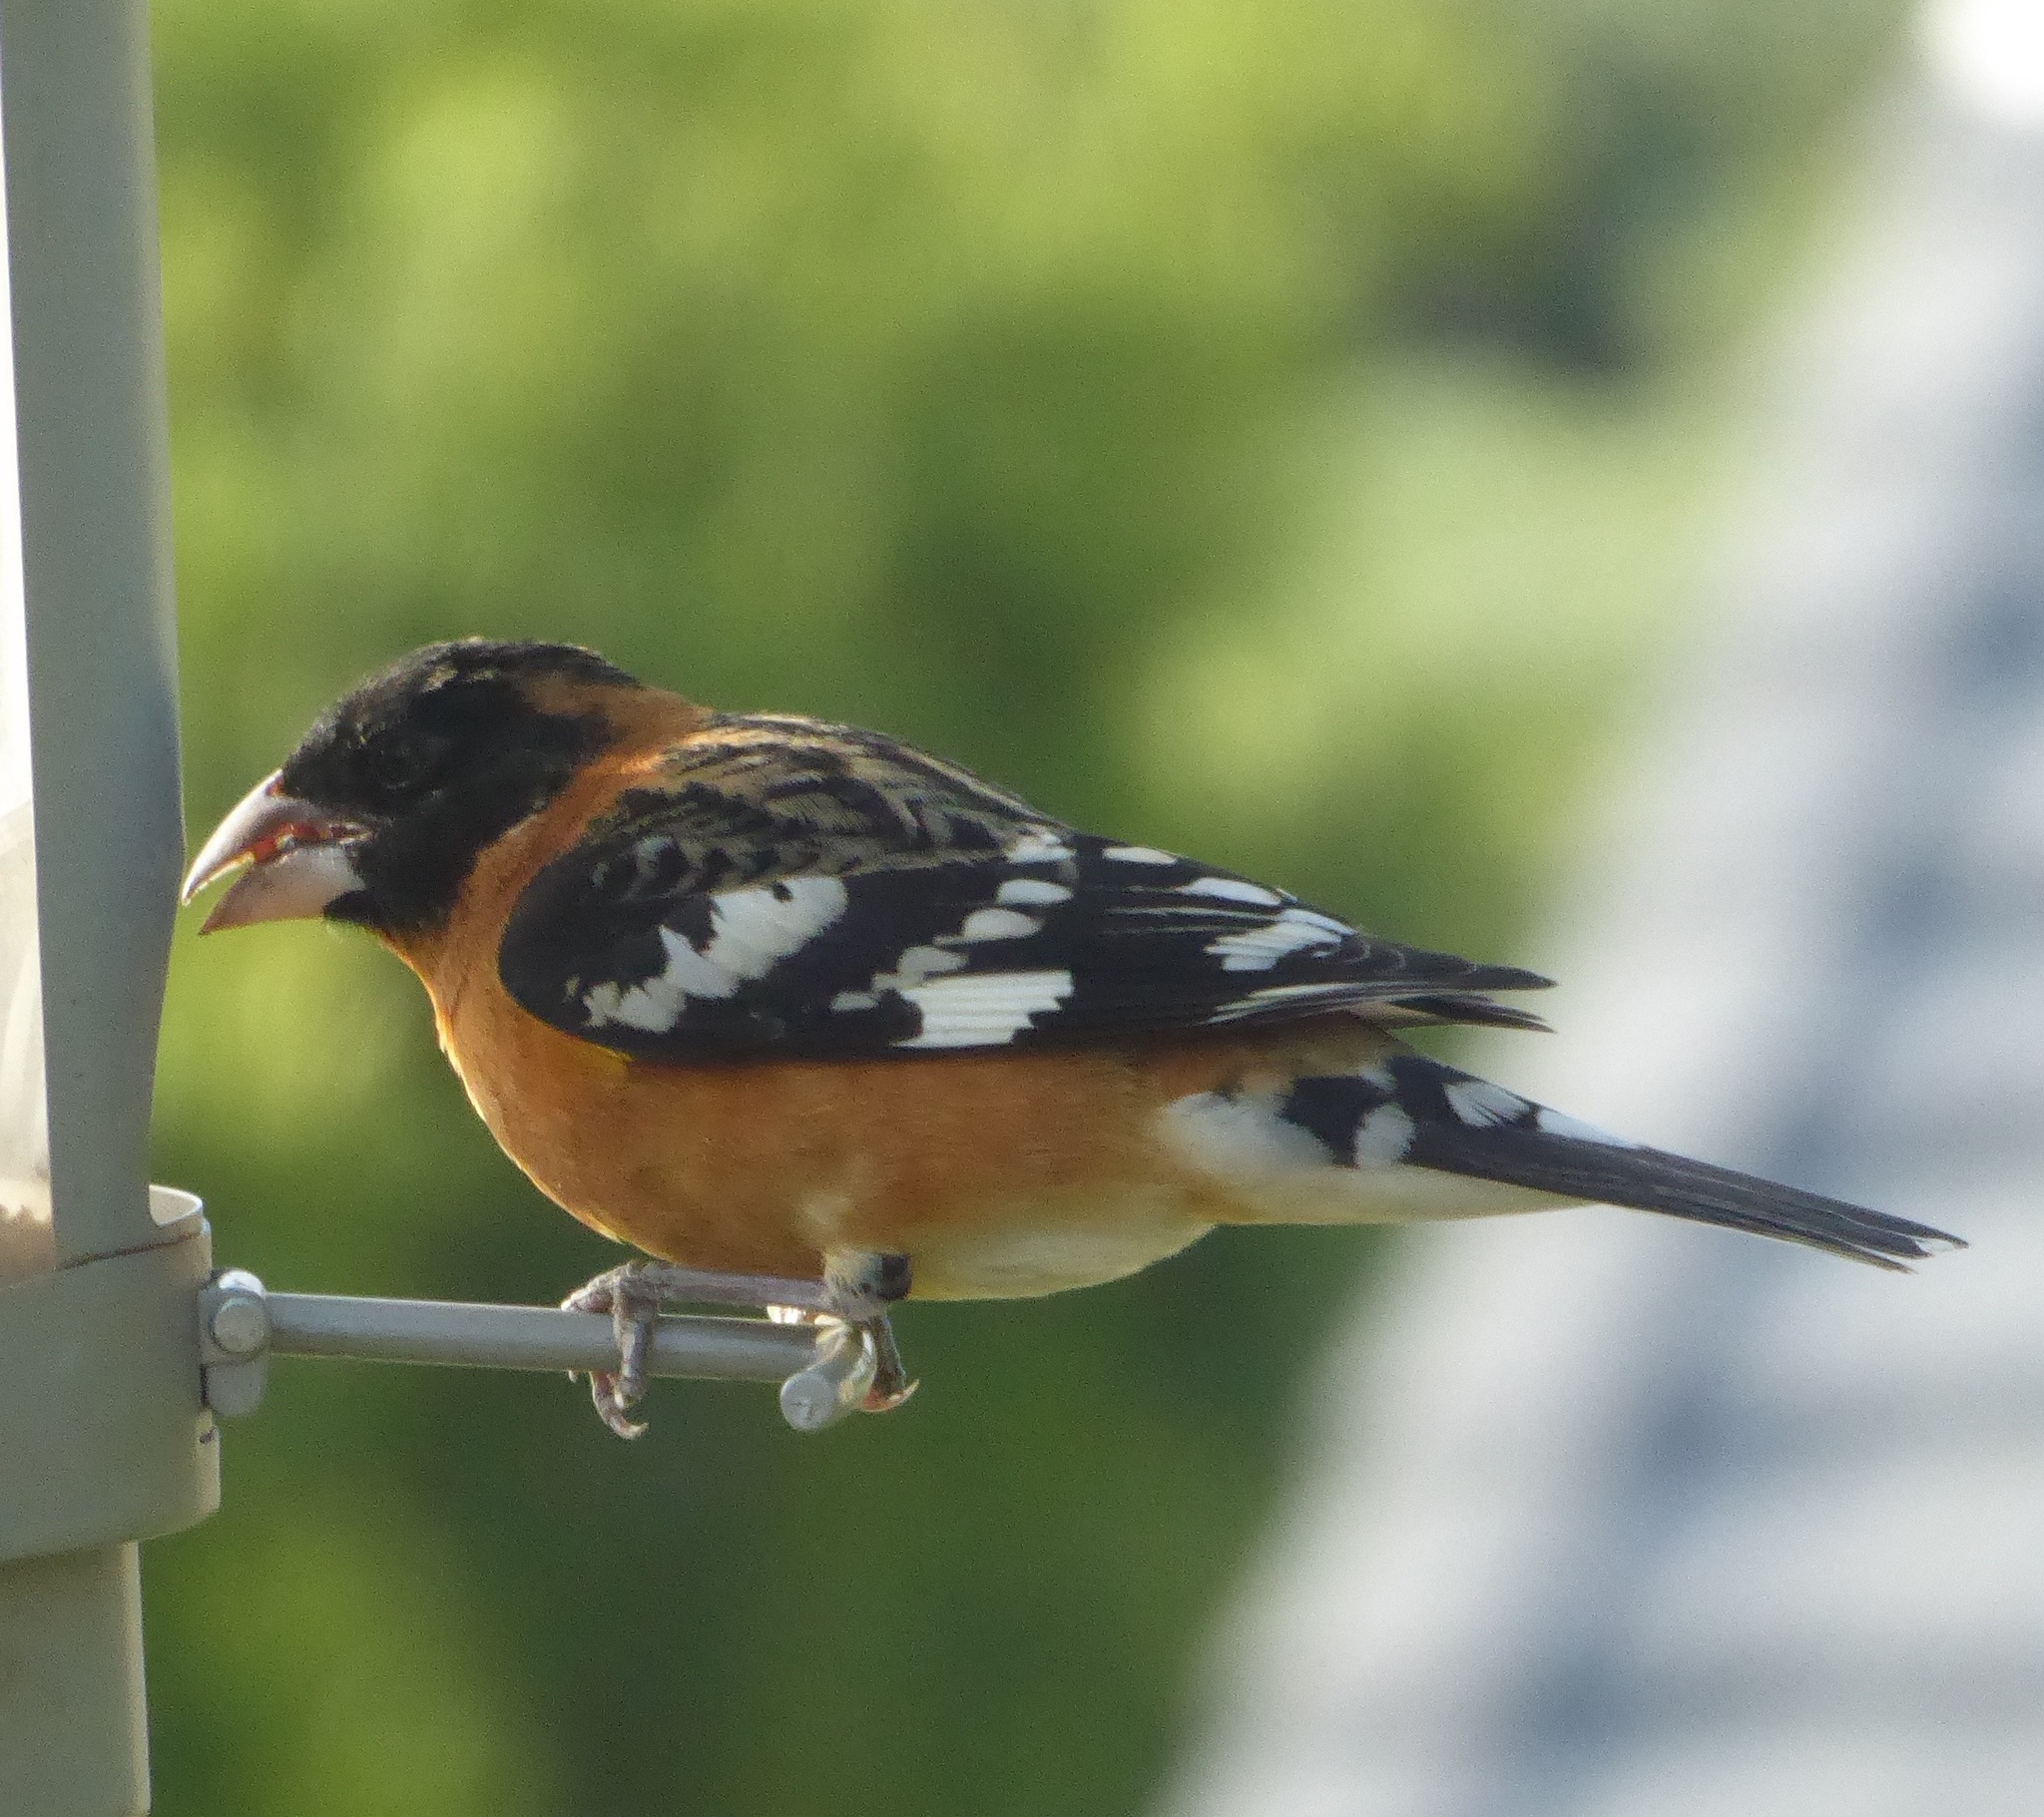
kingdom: Animalia
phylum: Chordata
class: Aves
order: Passeriformes
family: Cardinalidae
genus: Pheucticus
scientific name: Pheucticus melanocephalus
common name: Black-headed grosbeak
